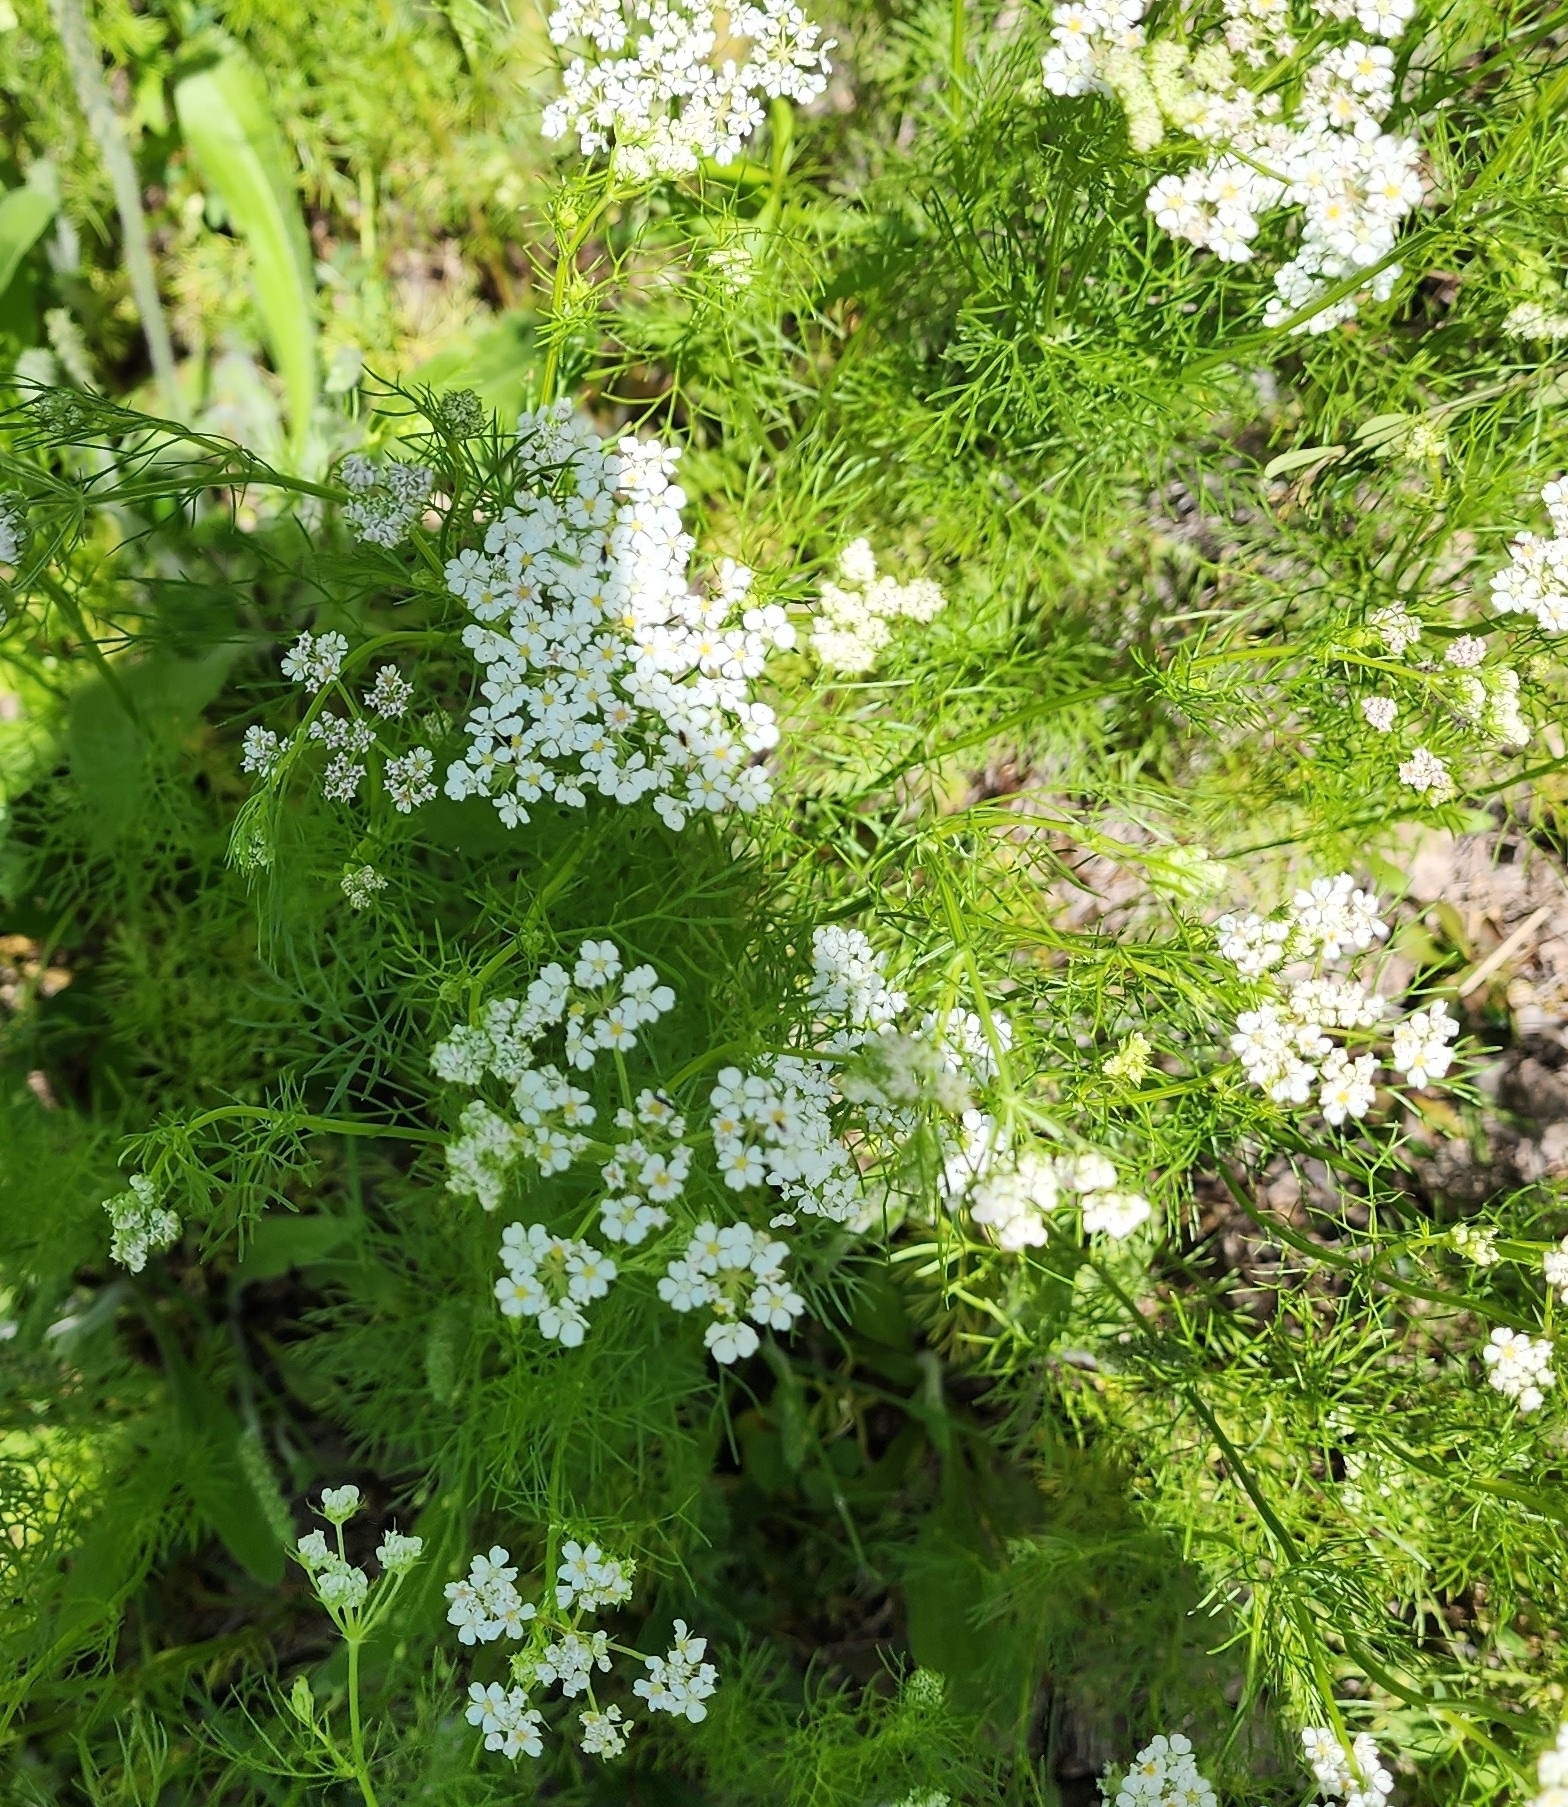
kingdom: Plantae
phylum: Tracheophyta
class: Magnoliopsida
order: Apiales
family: Apiaceae
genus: Atrema
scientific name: Atrema americanum
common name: Prairie-bishop
